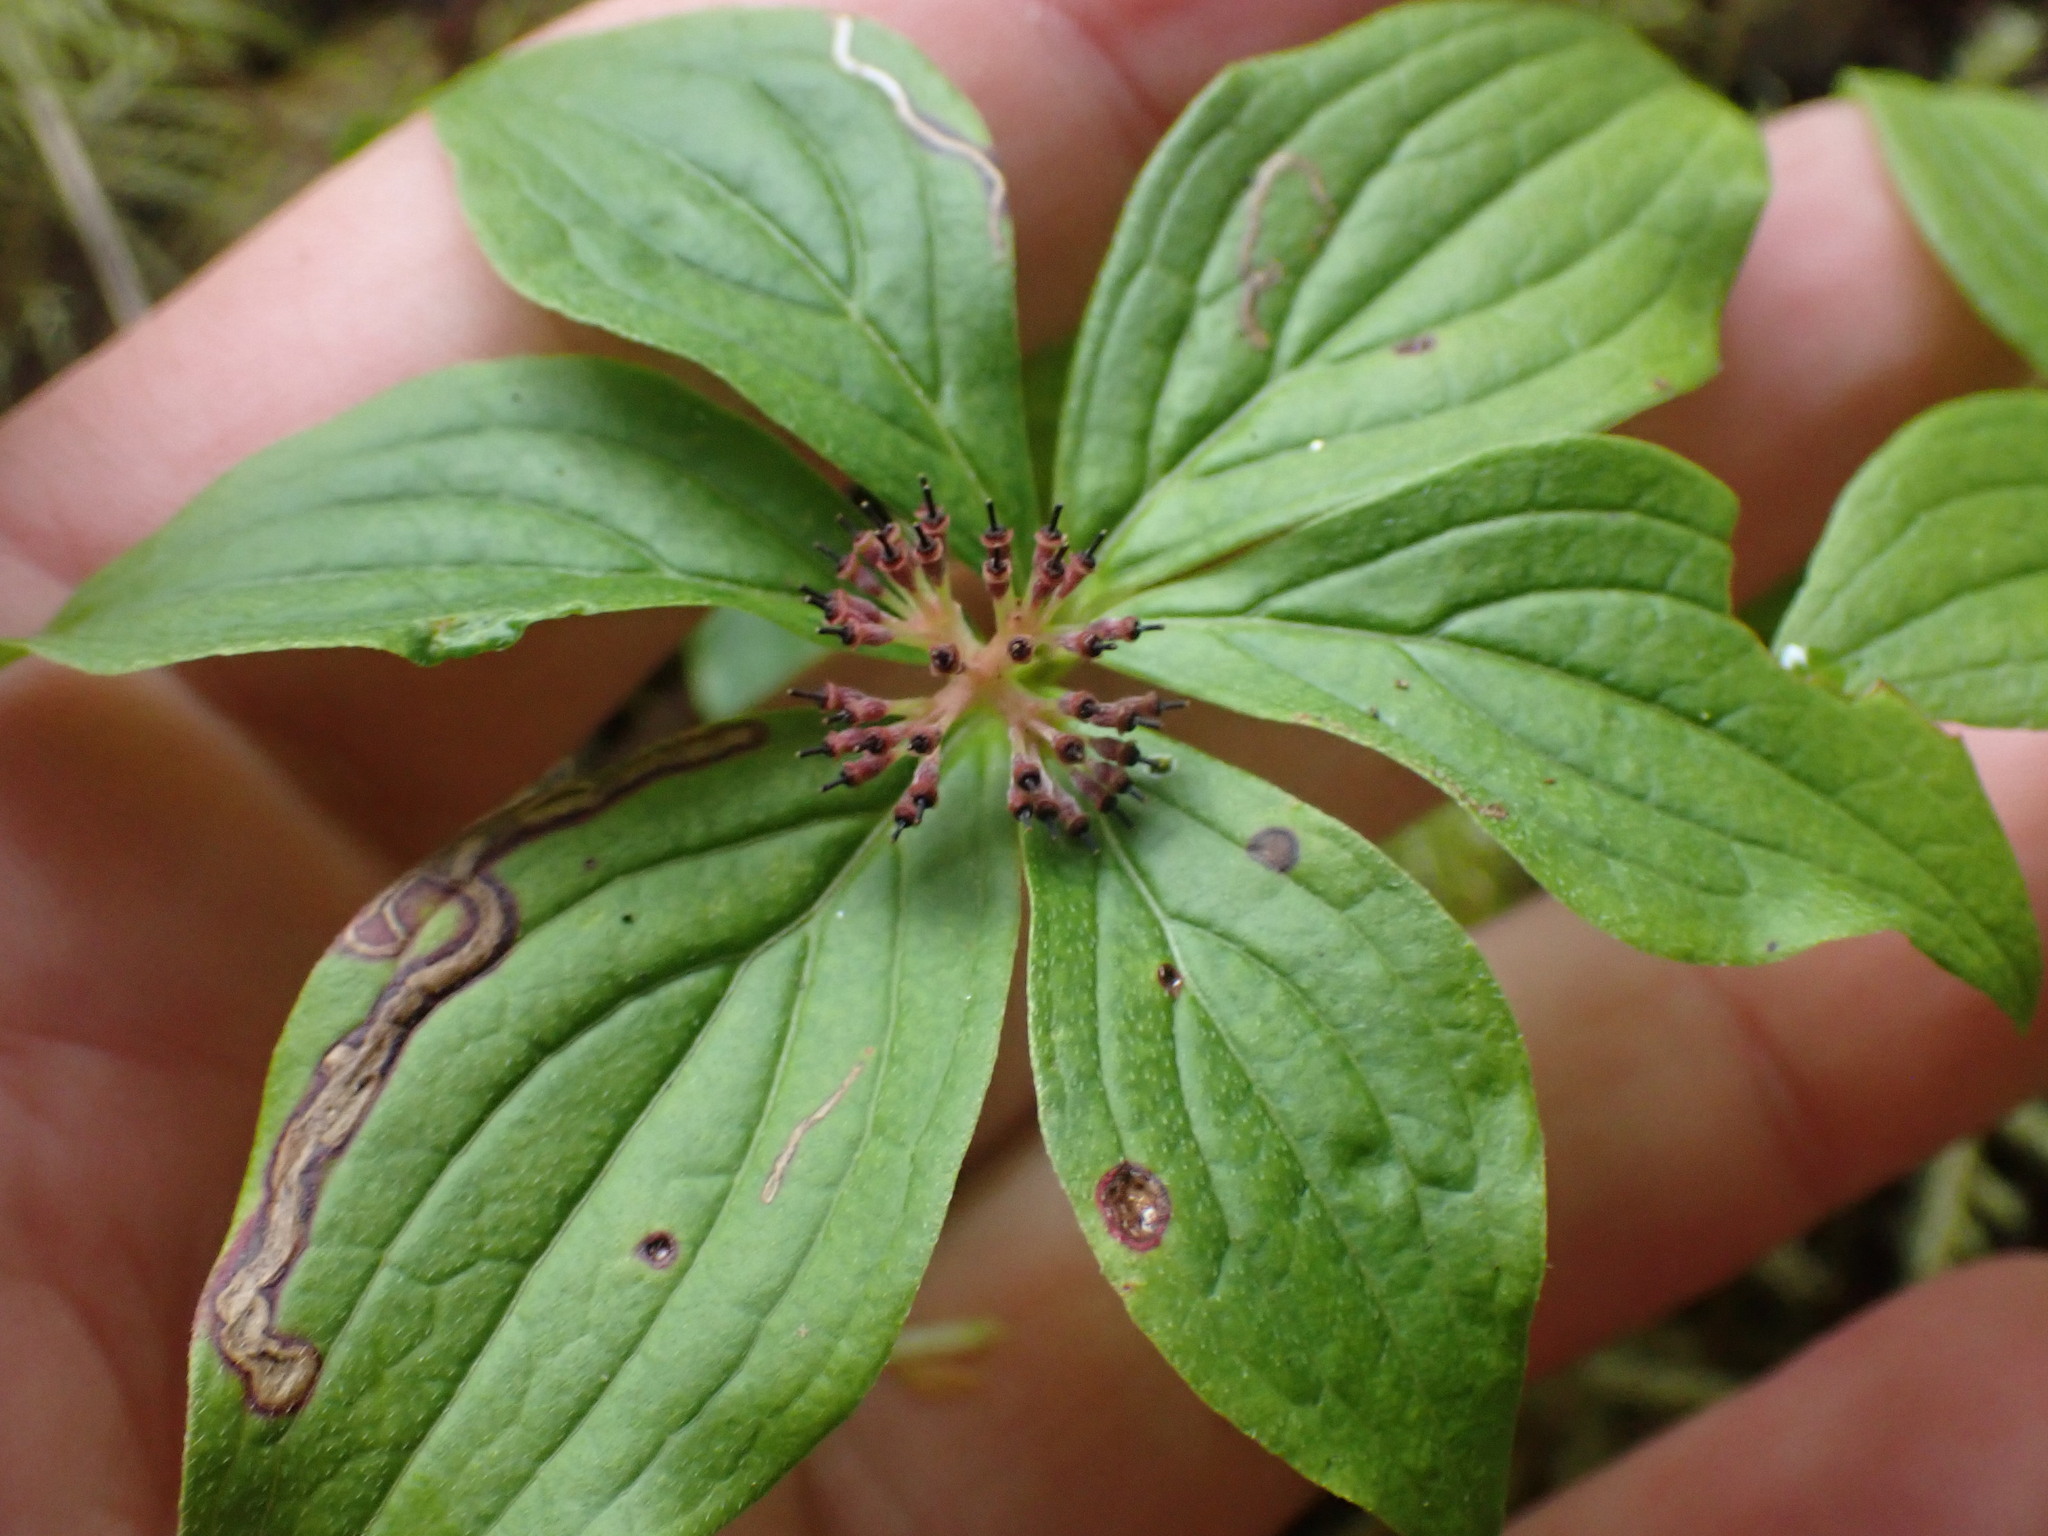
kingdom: Plantae
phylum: Tracheophyta
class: Magnoliopsida
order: Cornales
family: Cornaceae
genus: Cornus
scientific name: Cornus unalaschkensis
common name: Alaska bunchberry
